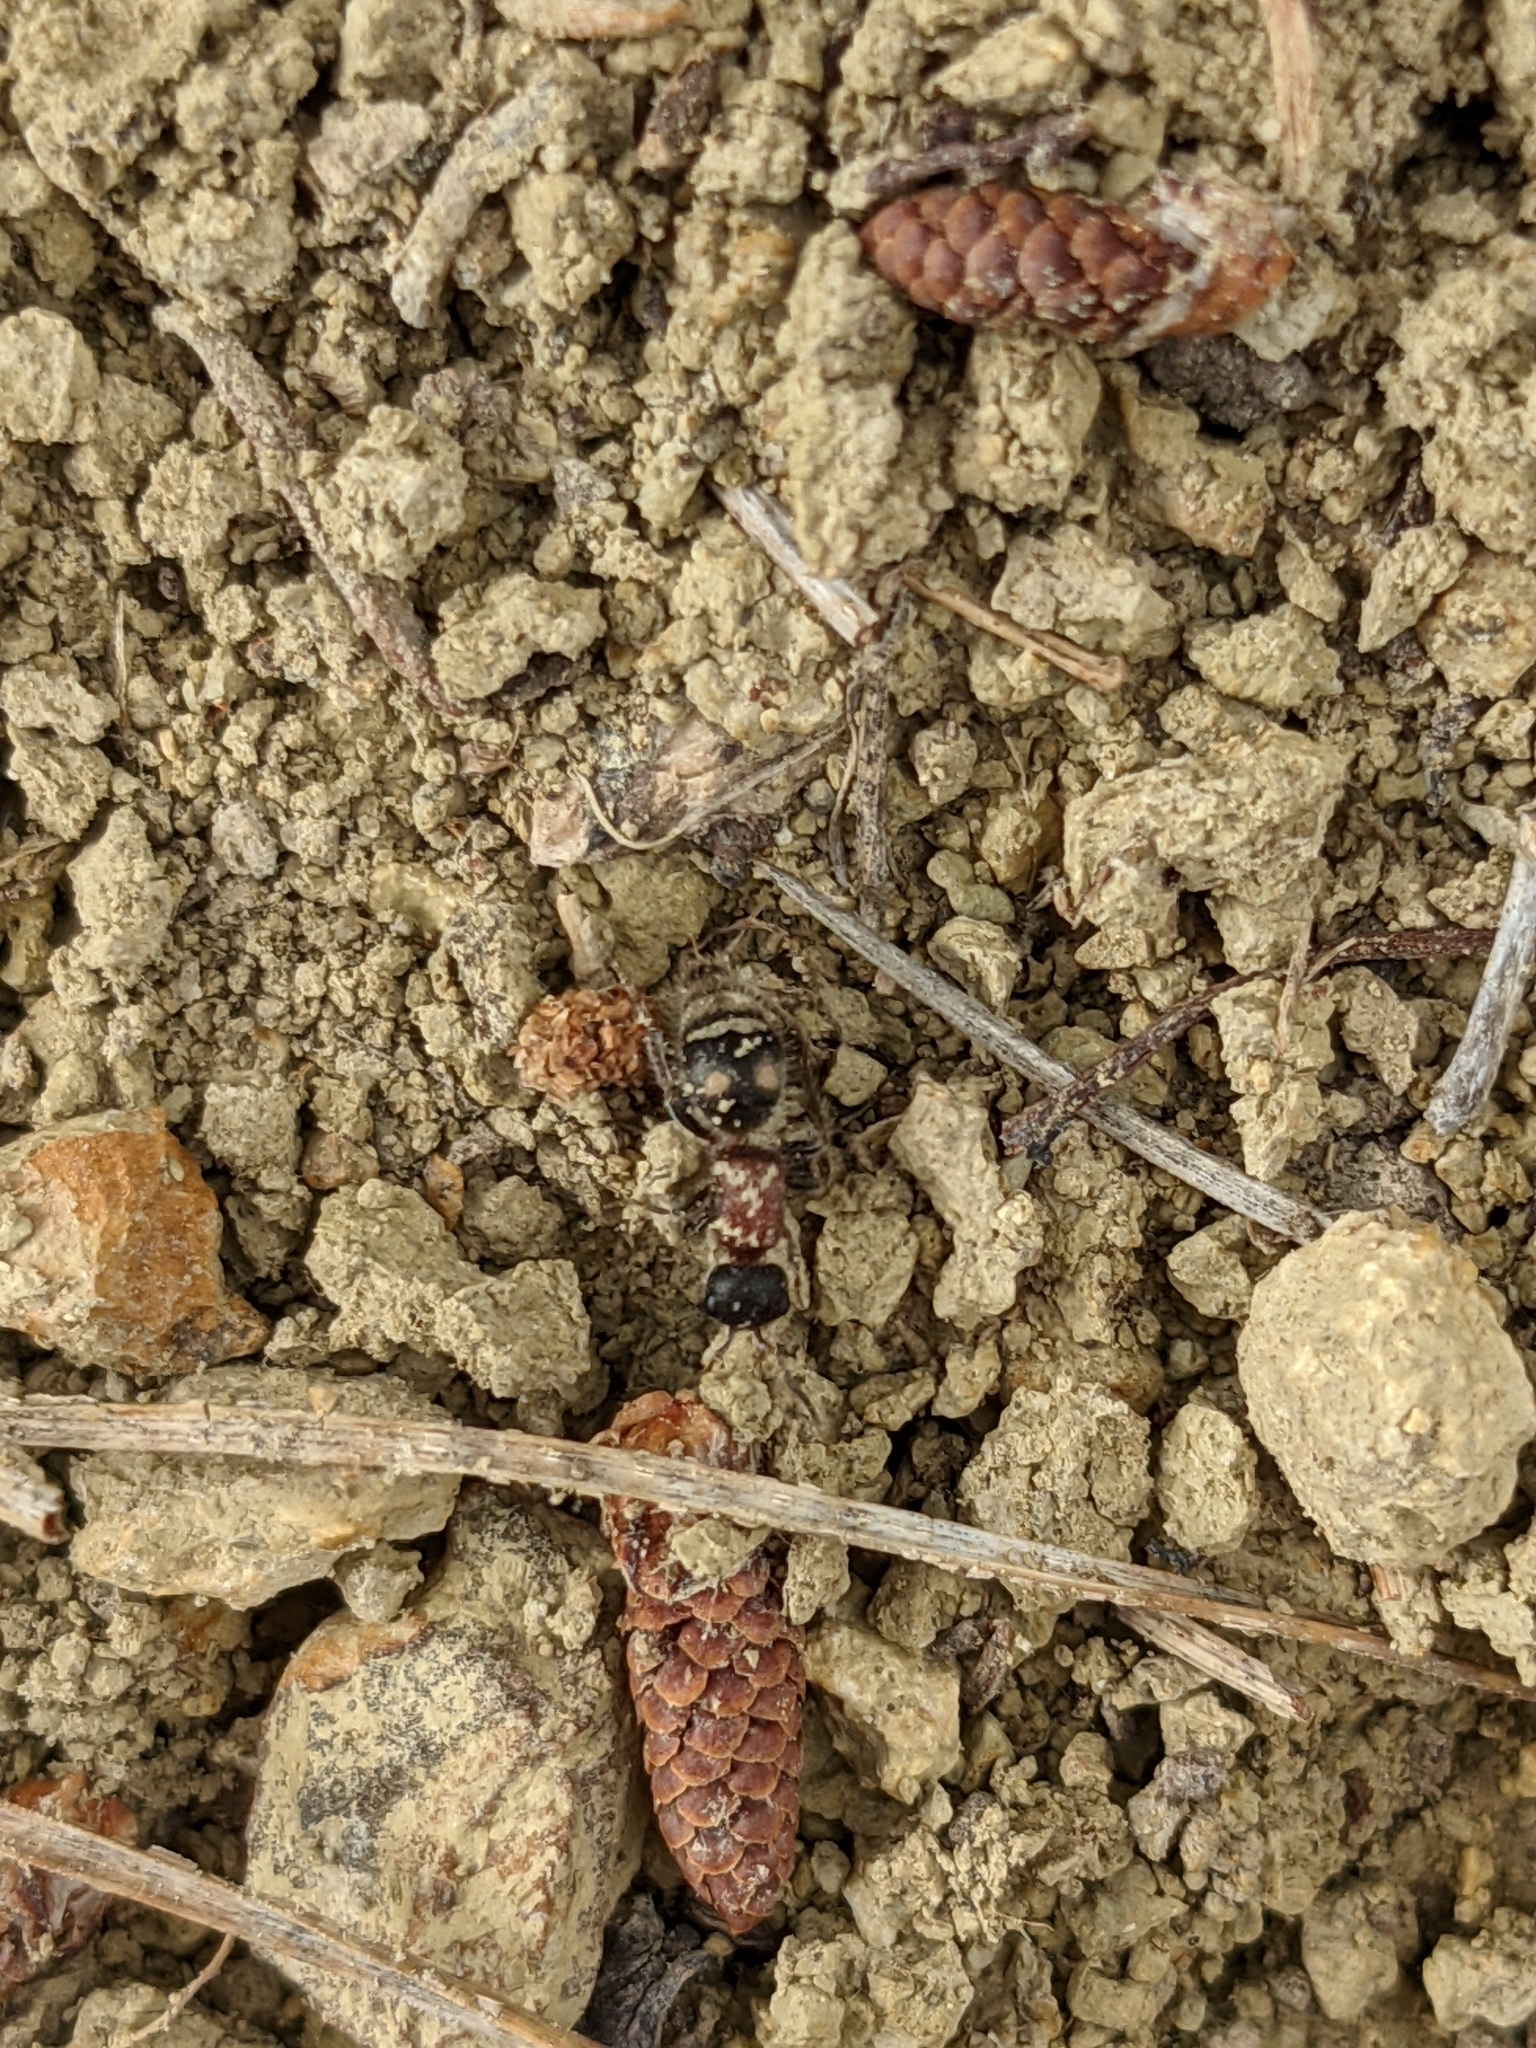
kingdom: Animalia
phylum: Arthropoda
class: Insecta
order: Hymenoptera
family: Mutillidae
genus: Bidecoloratilla
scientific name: Bidecoloratilla iberica
